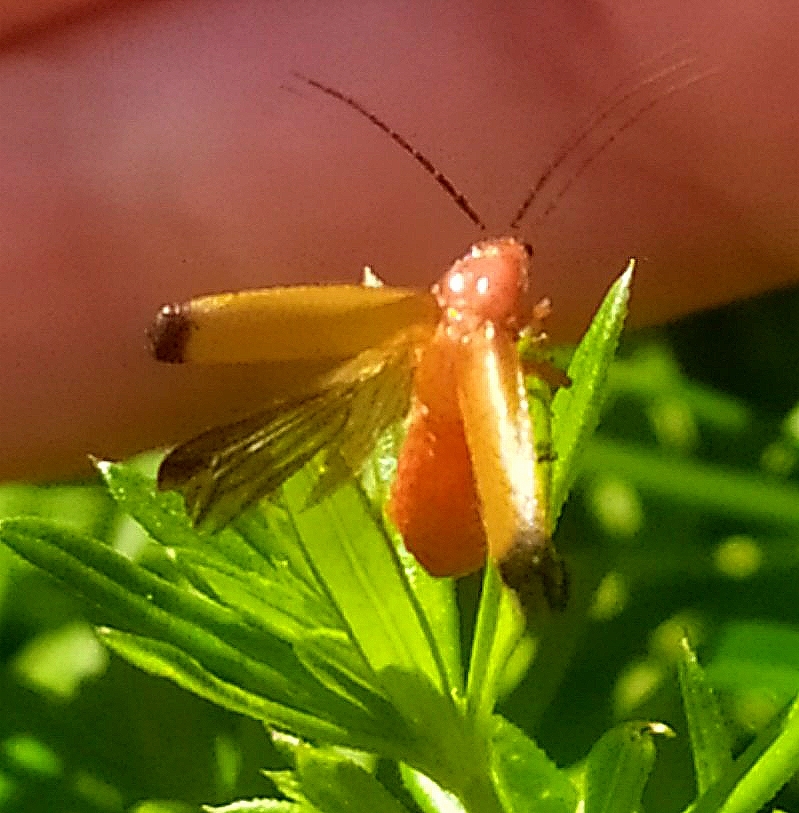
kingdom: Animalia
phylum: Arthropoda
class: Insecta
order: Coleoptera
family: Cantharidae
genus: Rhagonycha
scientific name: Rhagonycha fulva
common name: Common red soldier beetle
